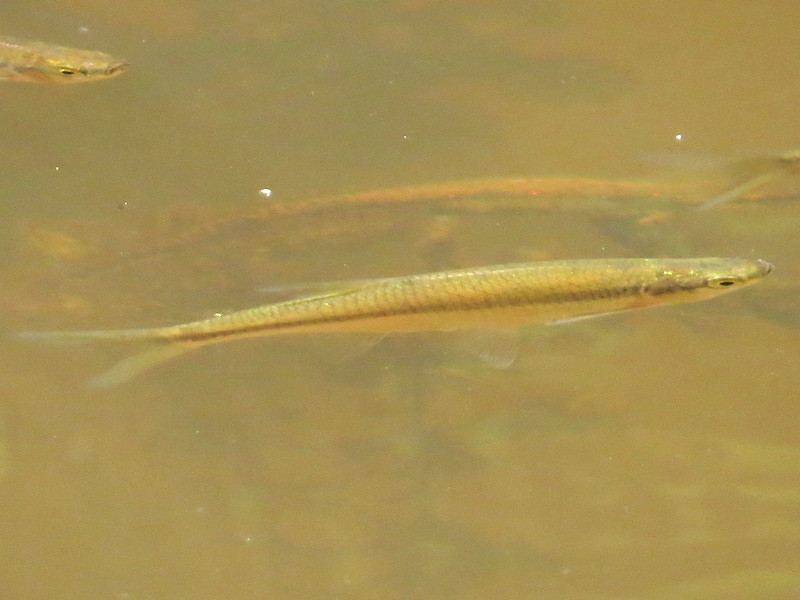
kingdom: Animalia
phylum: Chordata
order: Cypriniformes
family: Cyprinidae
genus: Notemigonus
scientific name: Notemigonus crysoleucas
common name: Golden shiner
